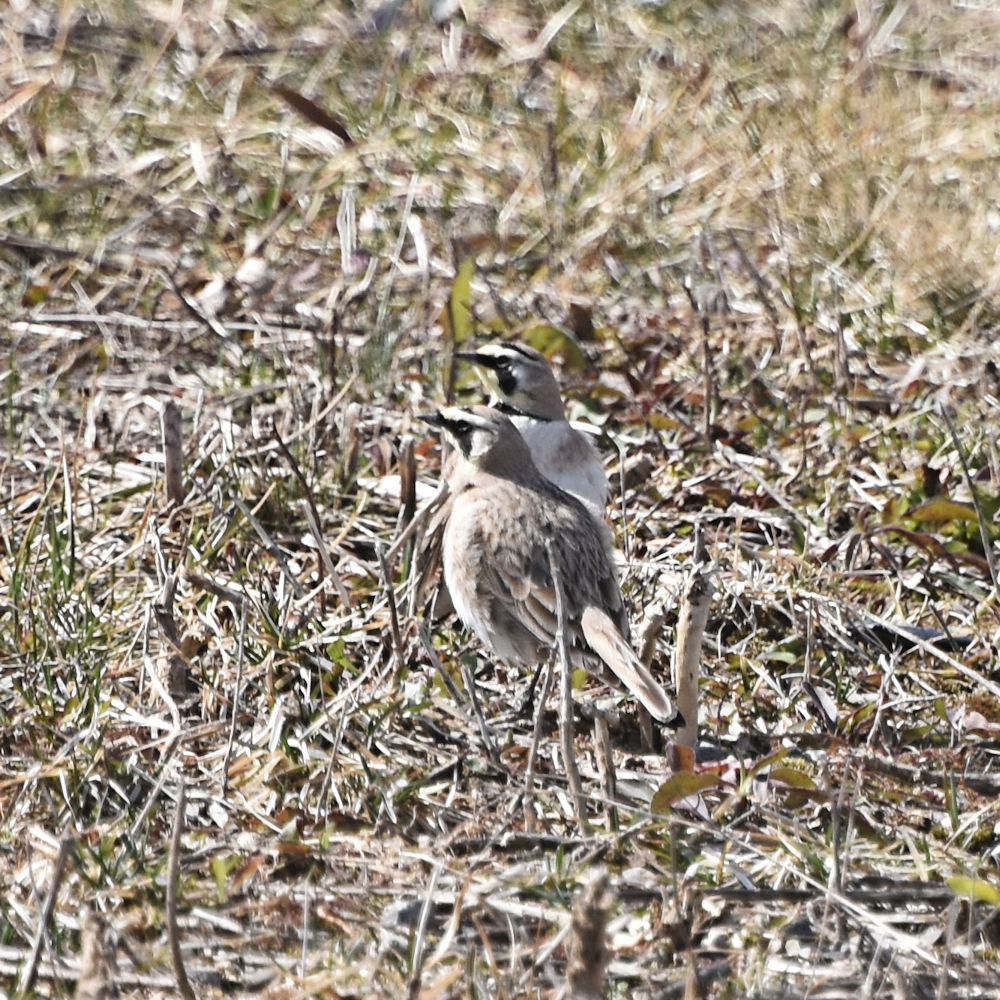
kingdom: Animalia
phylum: Chordata
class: Aves
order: Passeriformes
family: Alaudidae
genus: Eremophila
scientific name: Eremophila alpestris
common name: Horned lark
